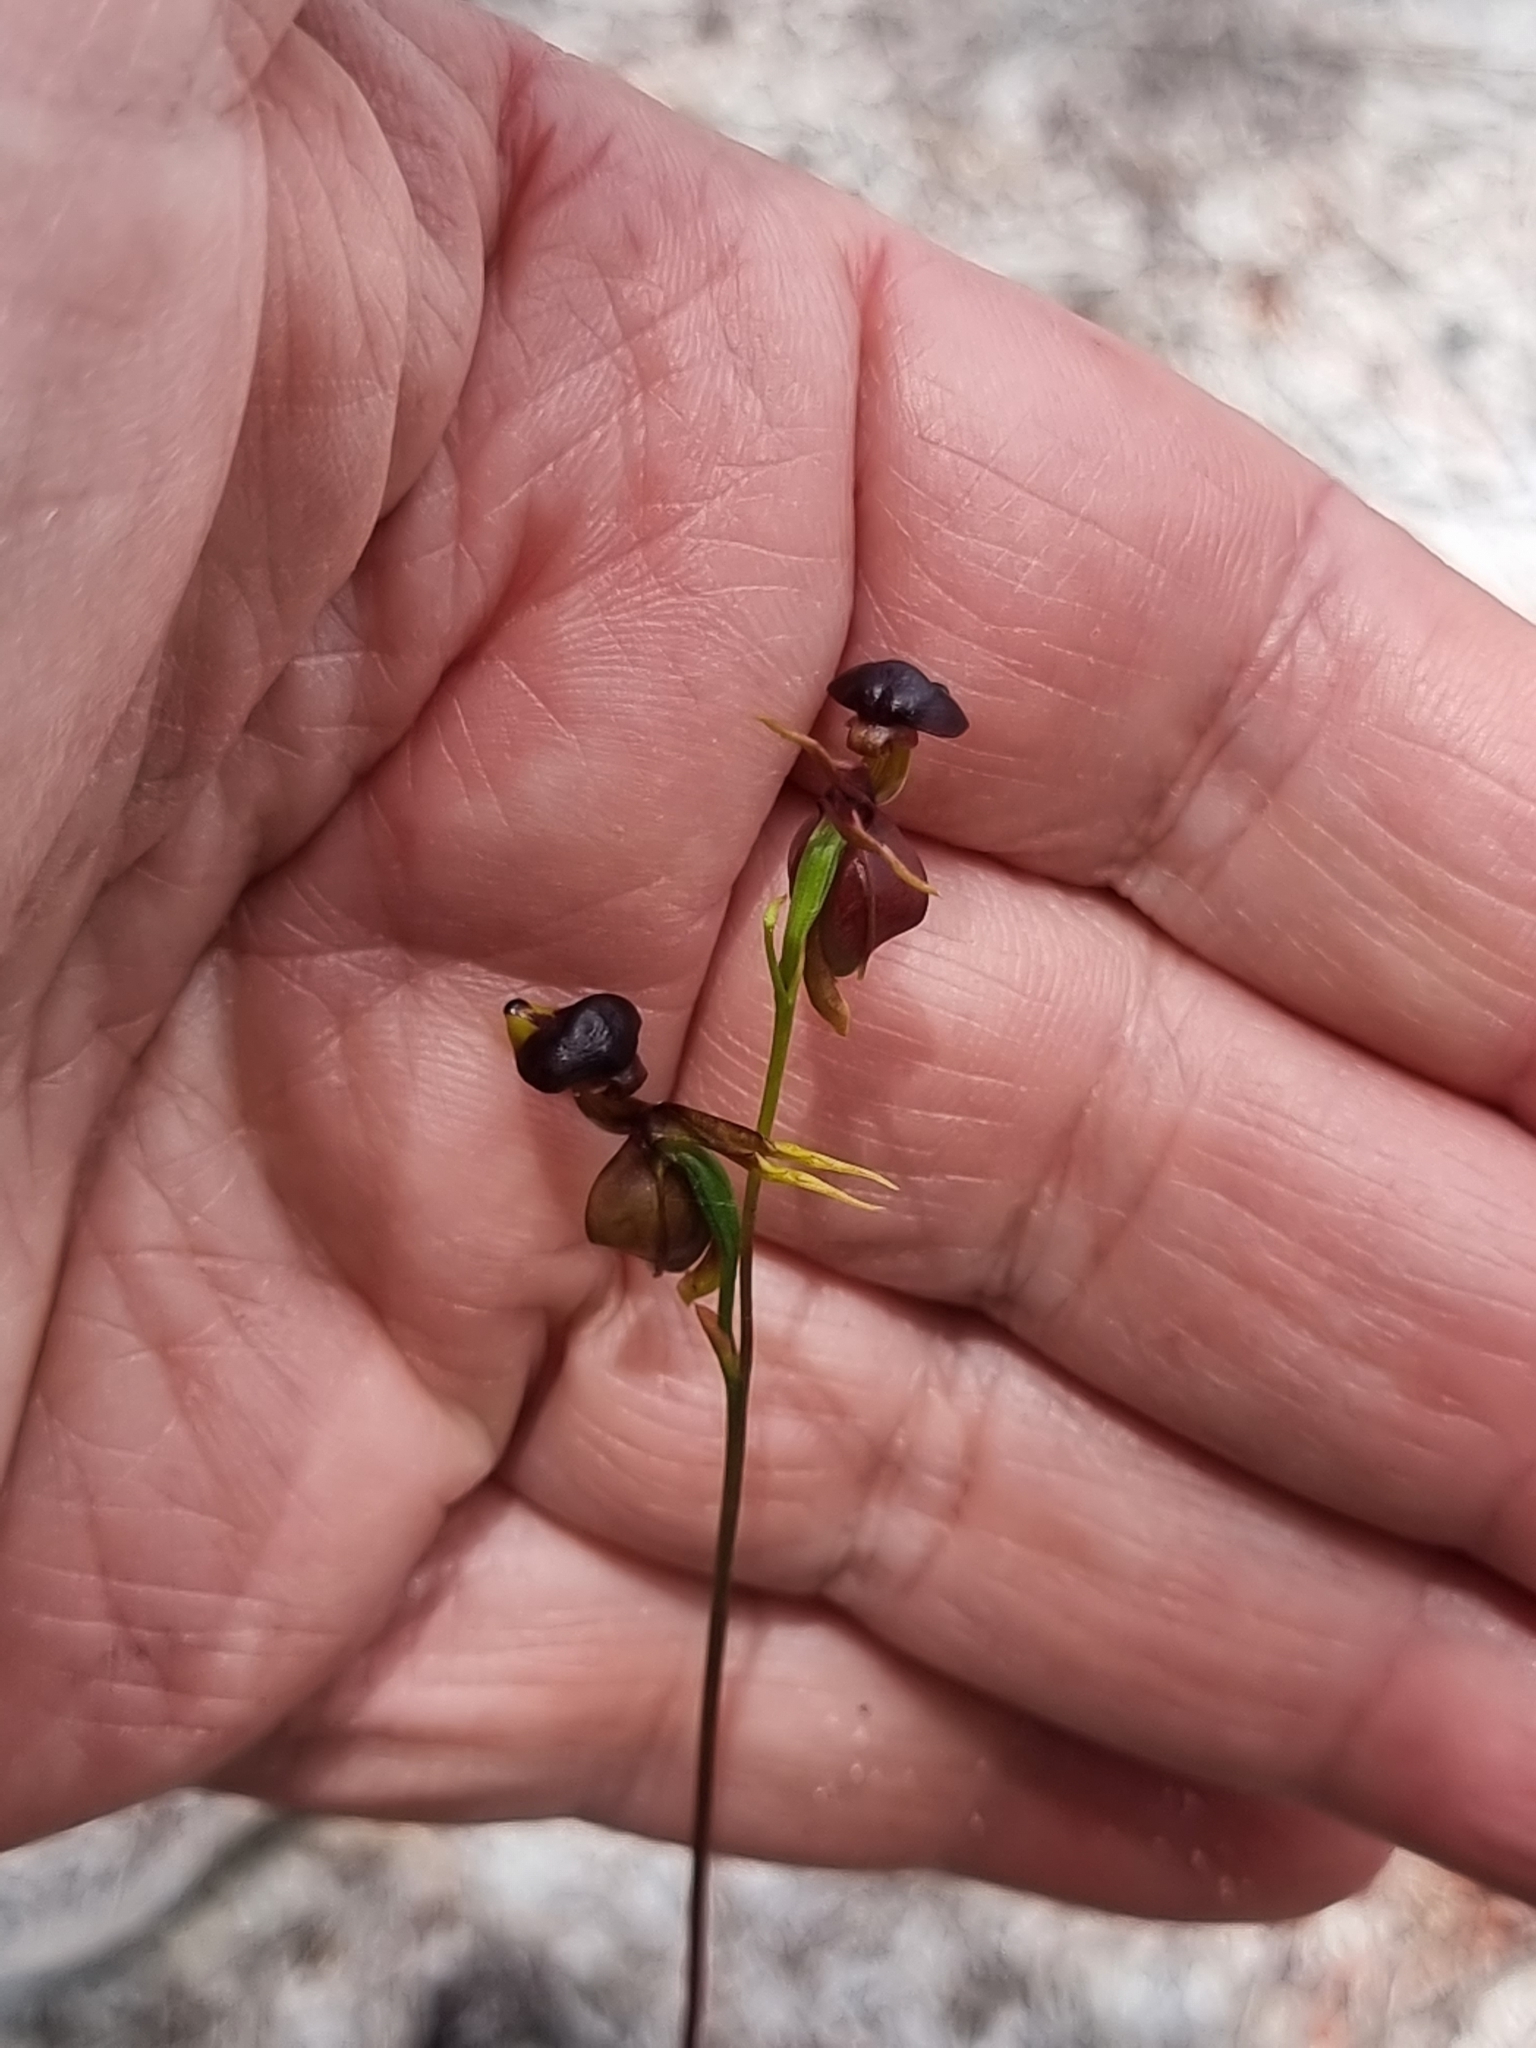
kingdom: Plantae
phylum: Tracheophyta
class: Liliopsida
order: Asparagales
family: Orchidaceae
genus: Caleana
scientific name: Caleana major
